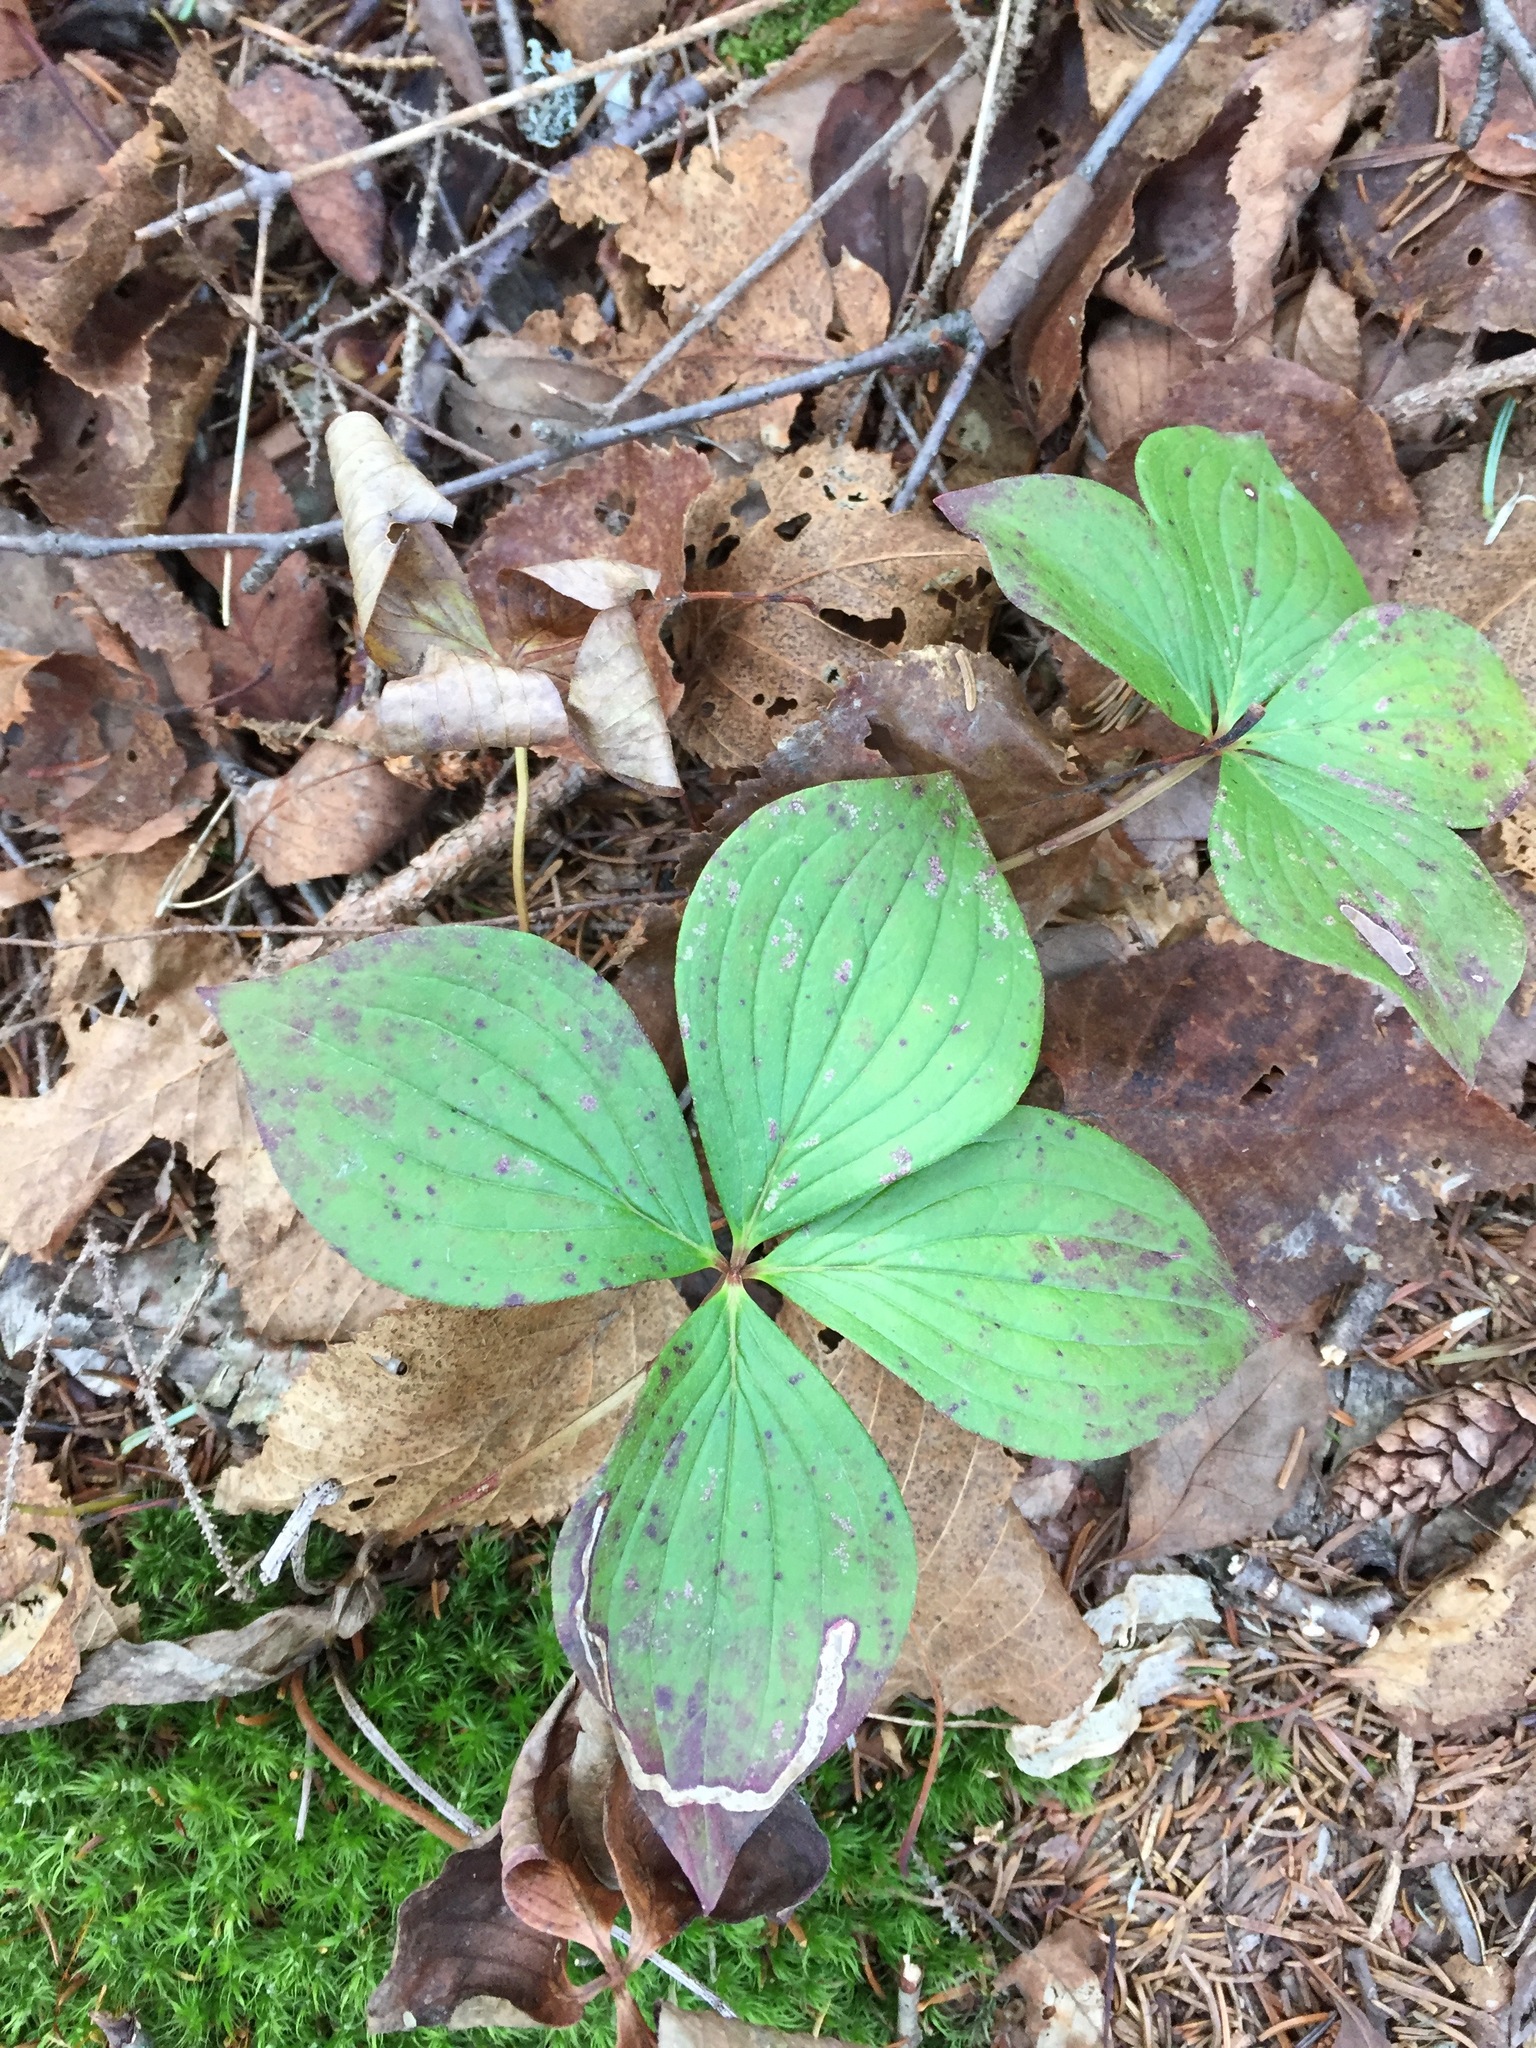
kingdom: Plantae
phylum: Tracheophyta
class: Magnoliopsida
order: Cornales
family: Cornaceae
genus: Cornus
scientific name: Cornus canadensis
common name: Creeping dogwood
